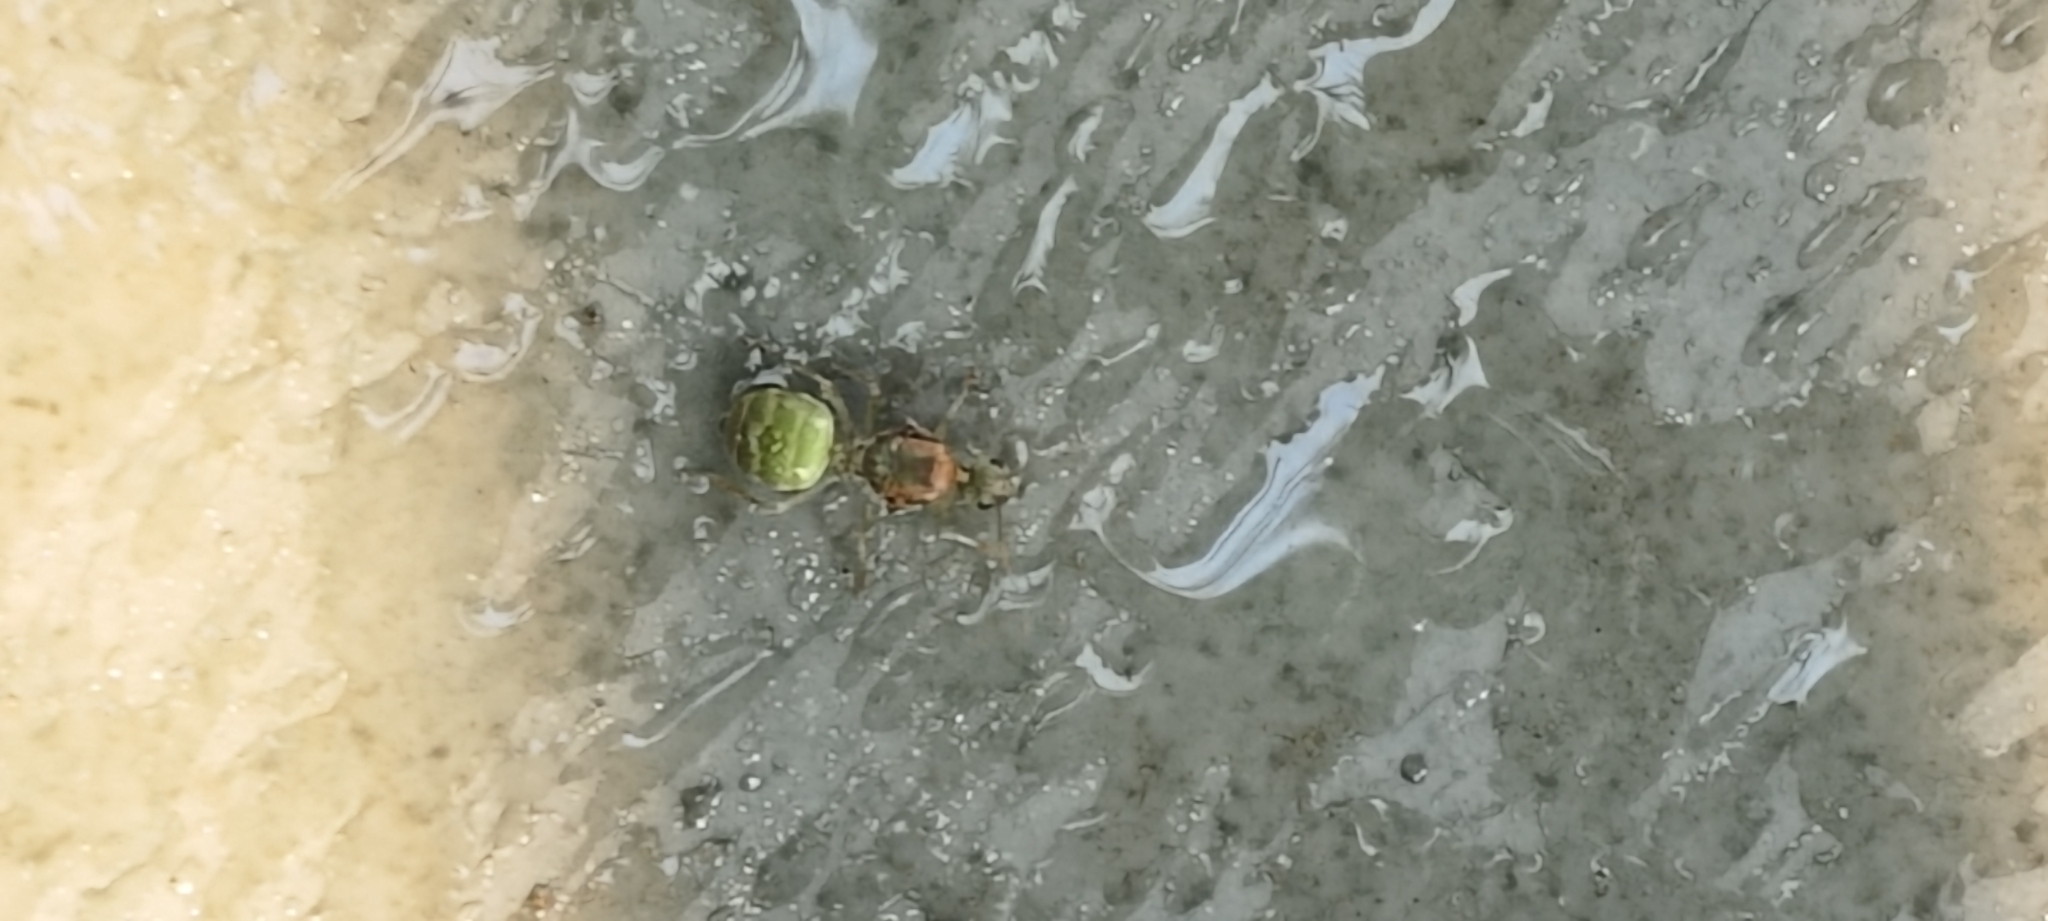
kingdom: Animalia
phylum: Arthropoda
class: Insecta
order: Hymenoptera
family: Formicidae
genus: Oecophylla
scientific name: Oecophylla smaragdina
